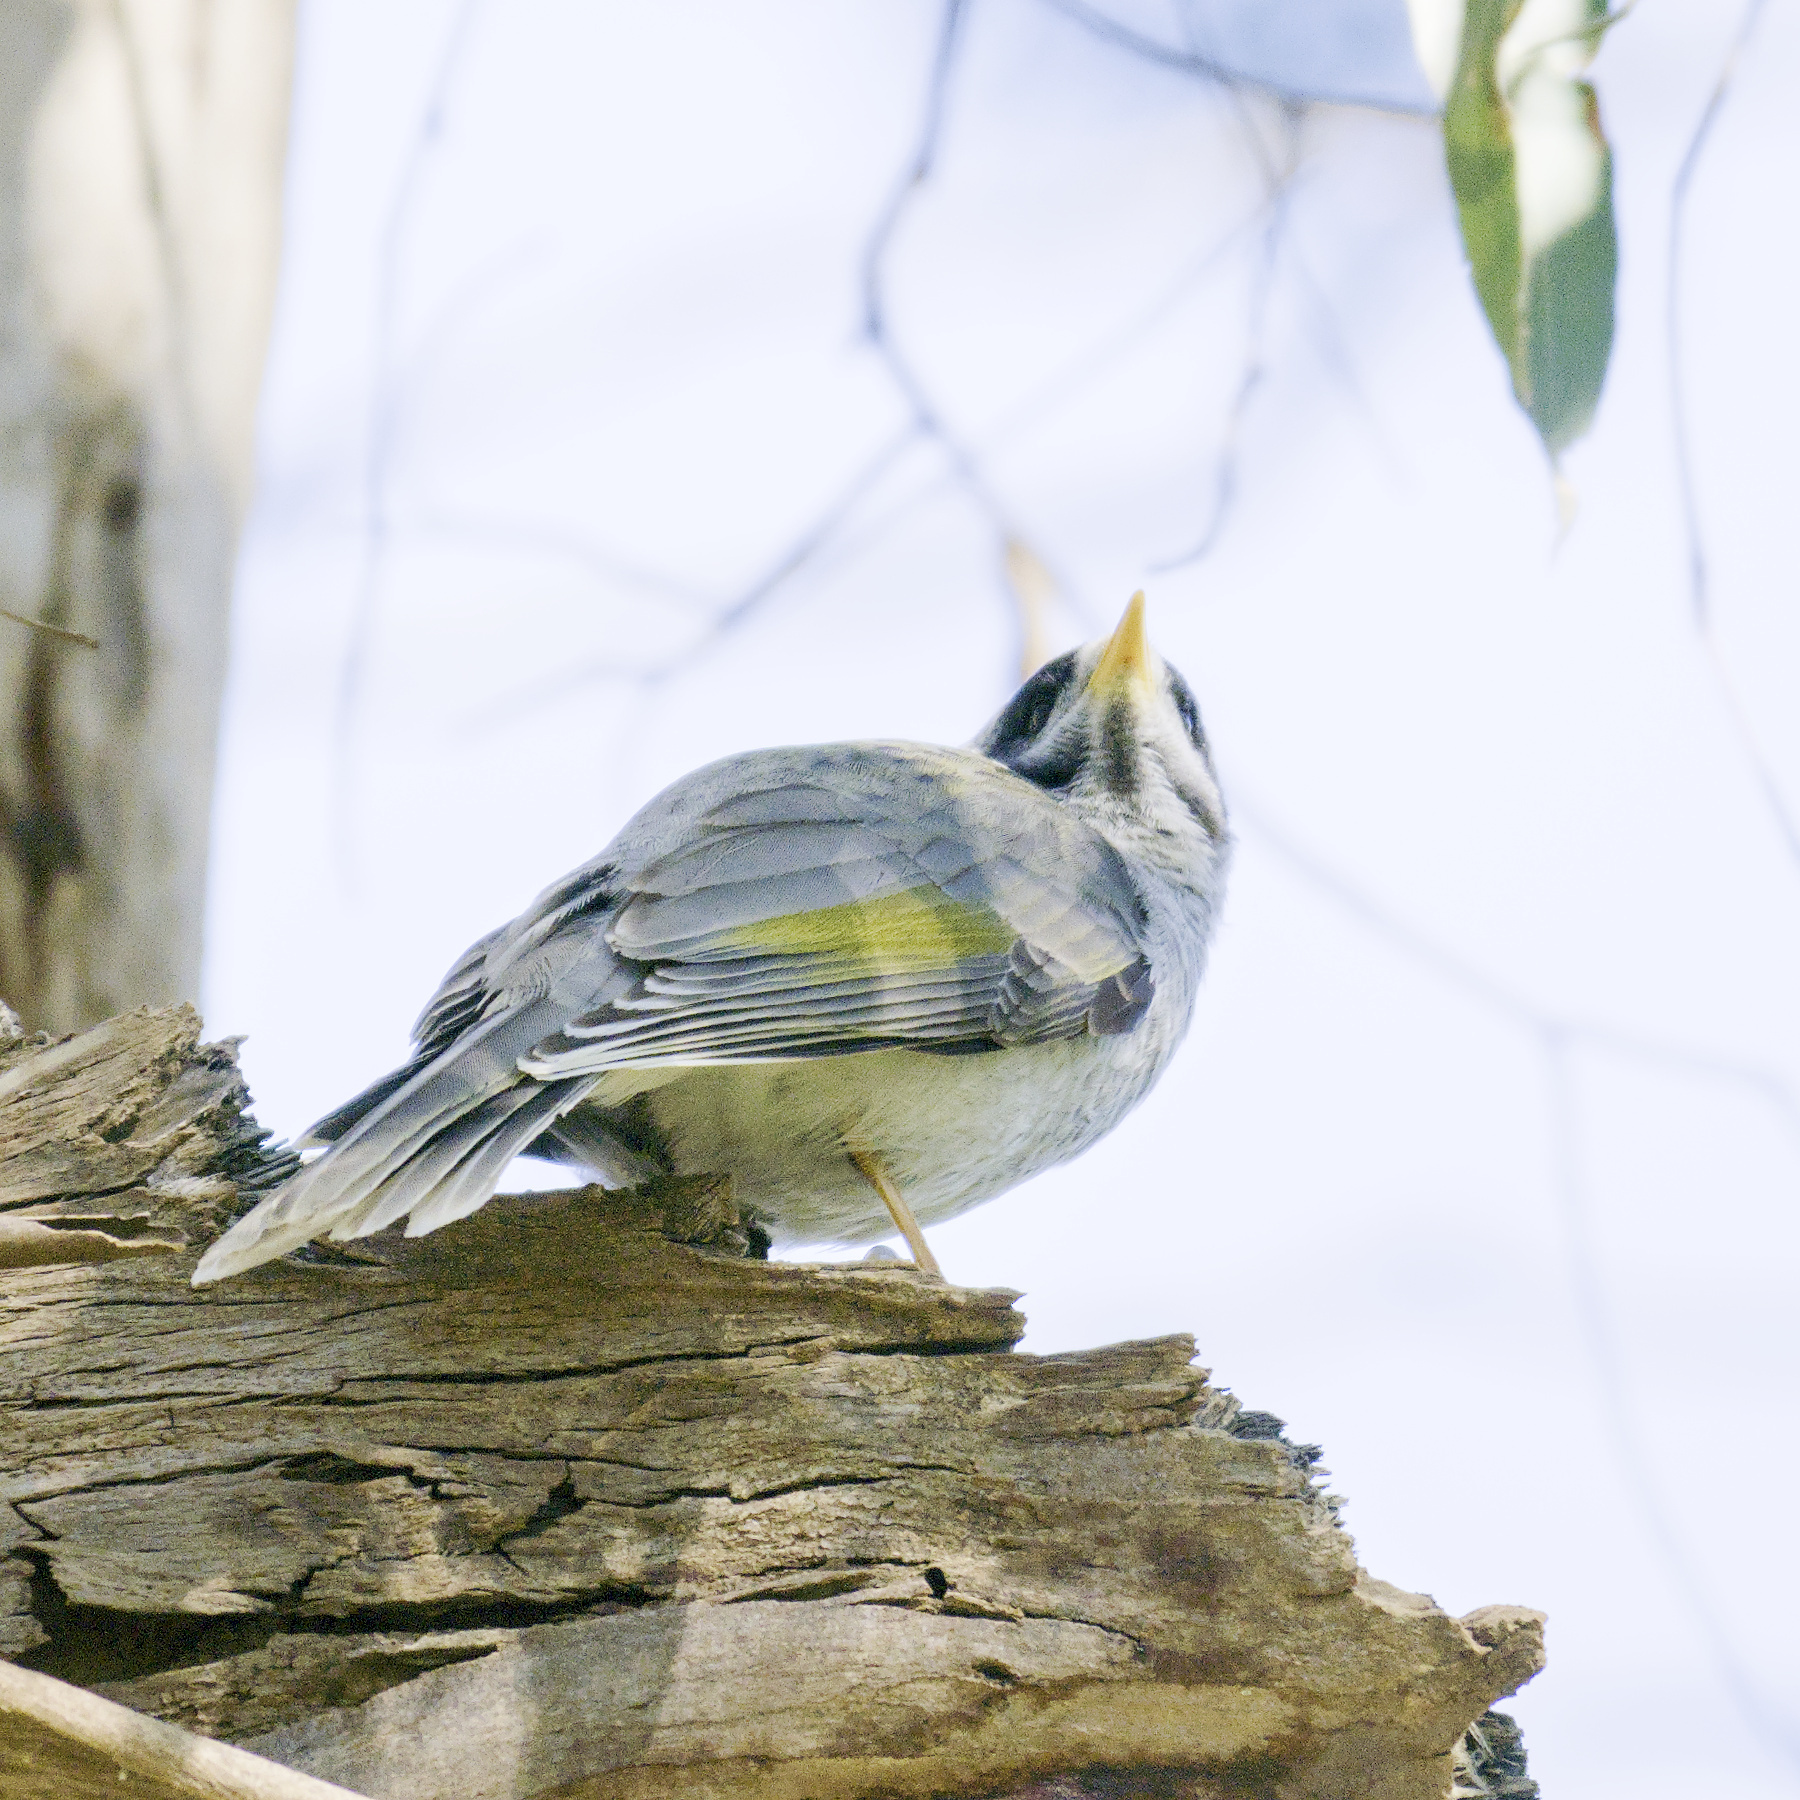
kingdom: Animalia
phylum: Chordata
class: Aves
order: Passeriformes
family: Meliphagidae
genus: Manorina
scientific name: Manorina melanocephala
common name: Noisy miner
